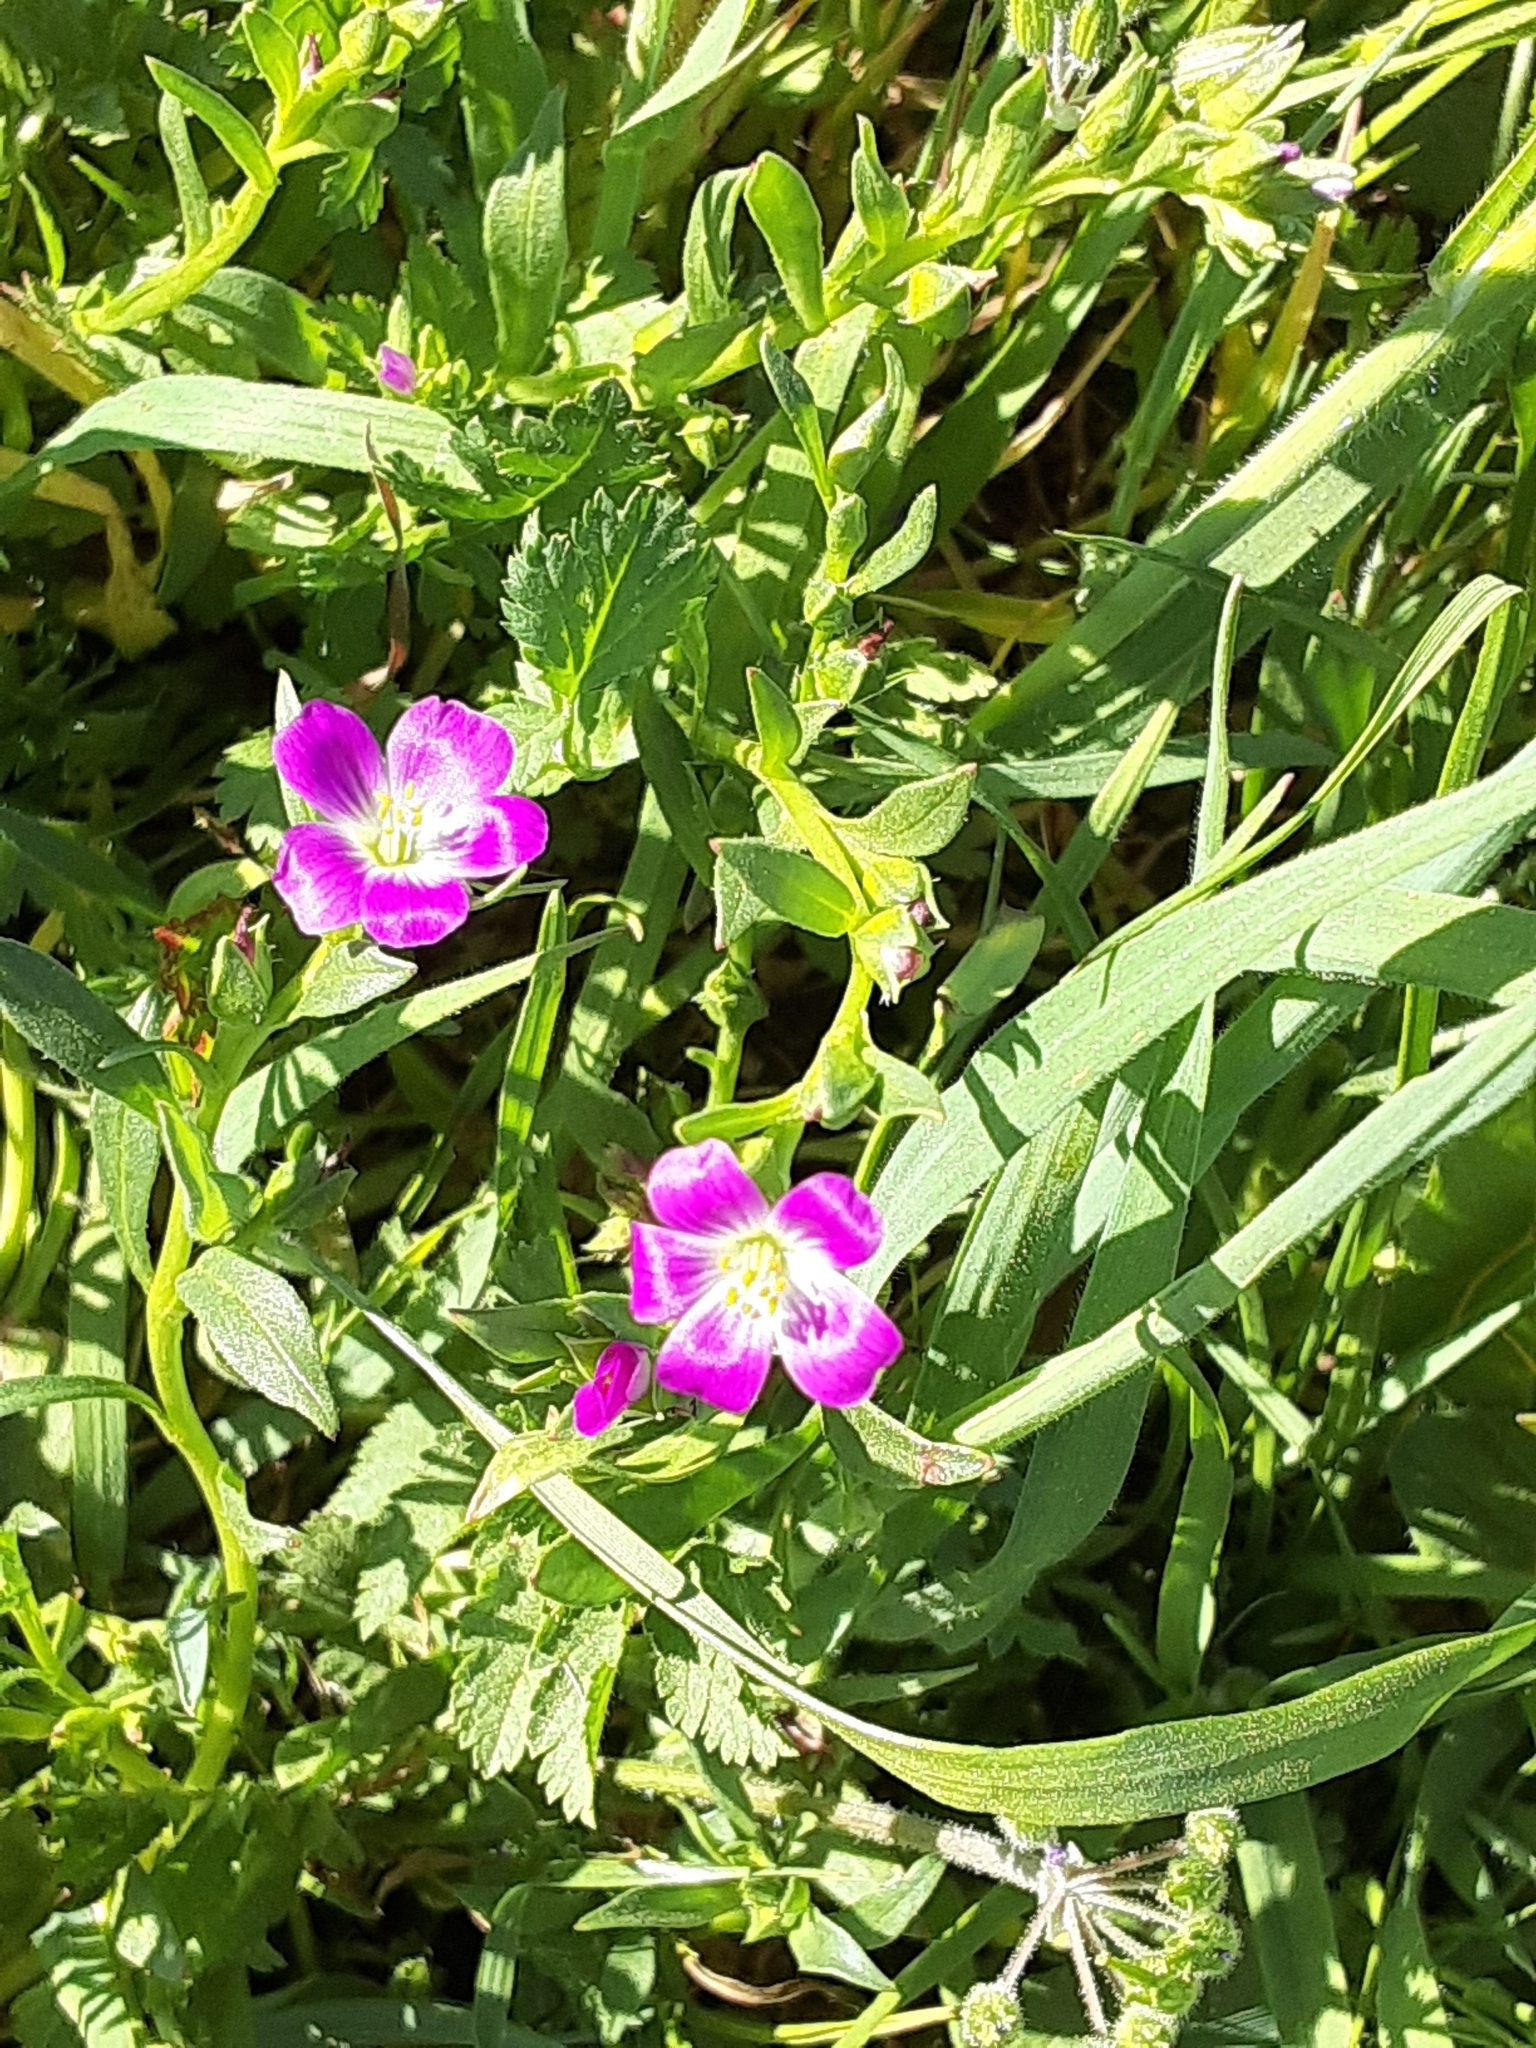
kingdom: Plantae
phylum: Tracheophyta
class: Magnoliopsida
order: Caryophyllales
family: Montiaceae
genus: Calandrinia
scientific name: Calandrinia menziesii
